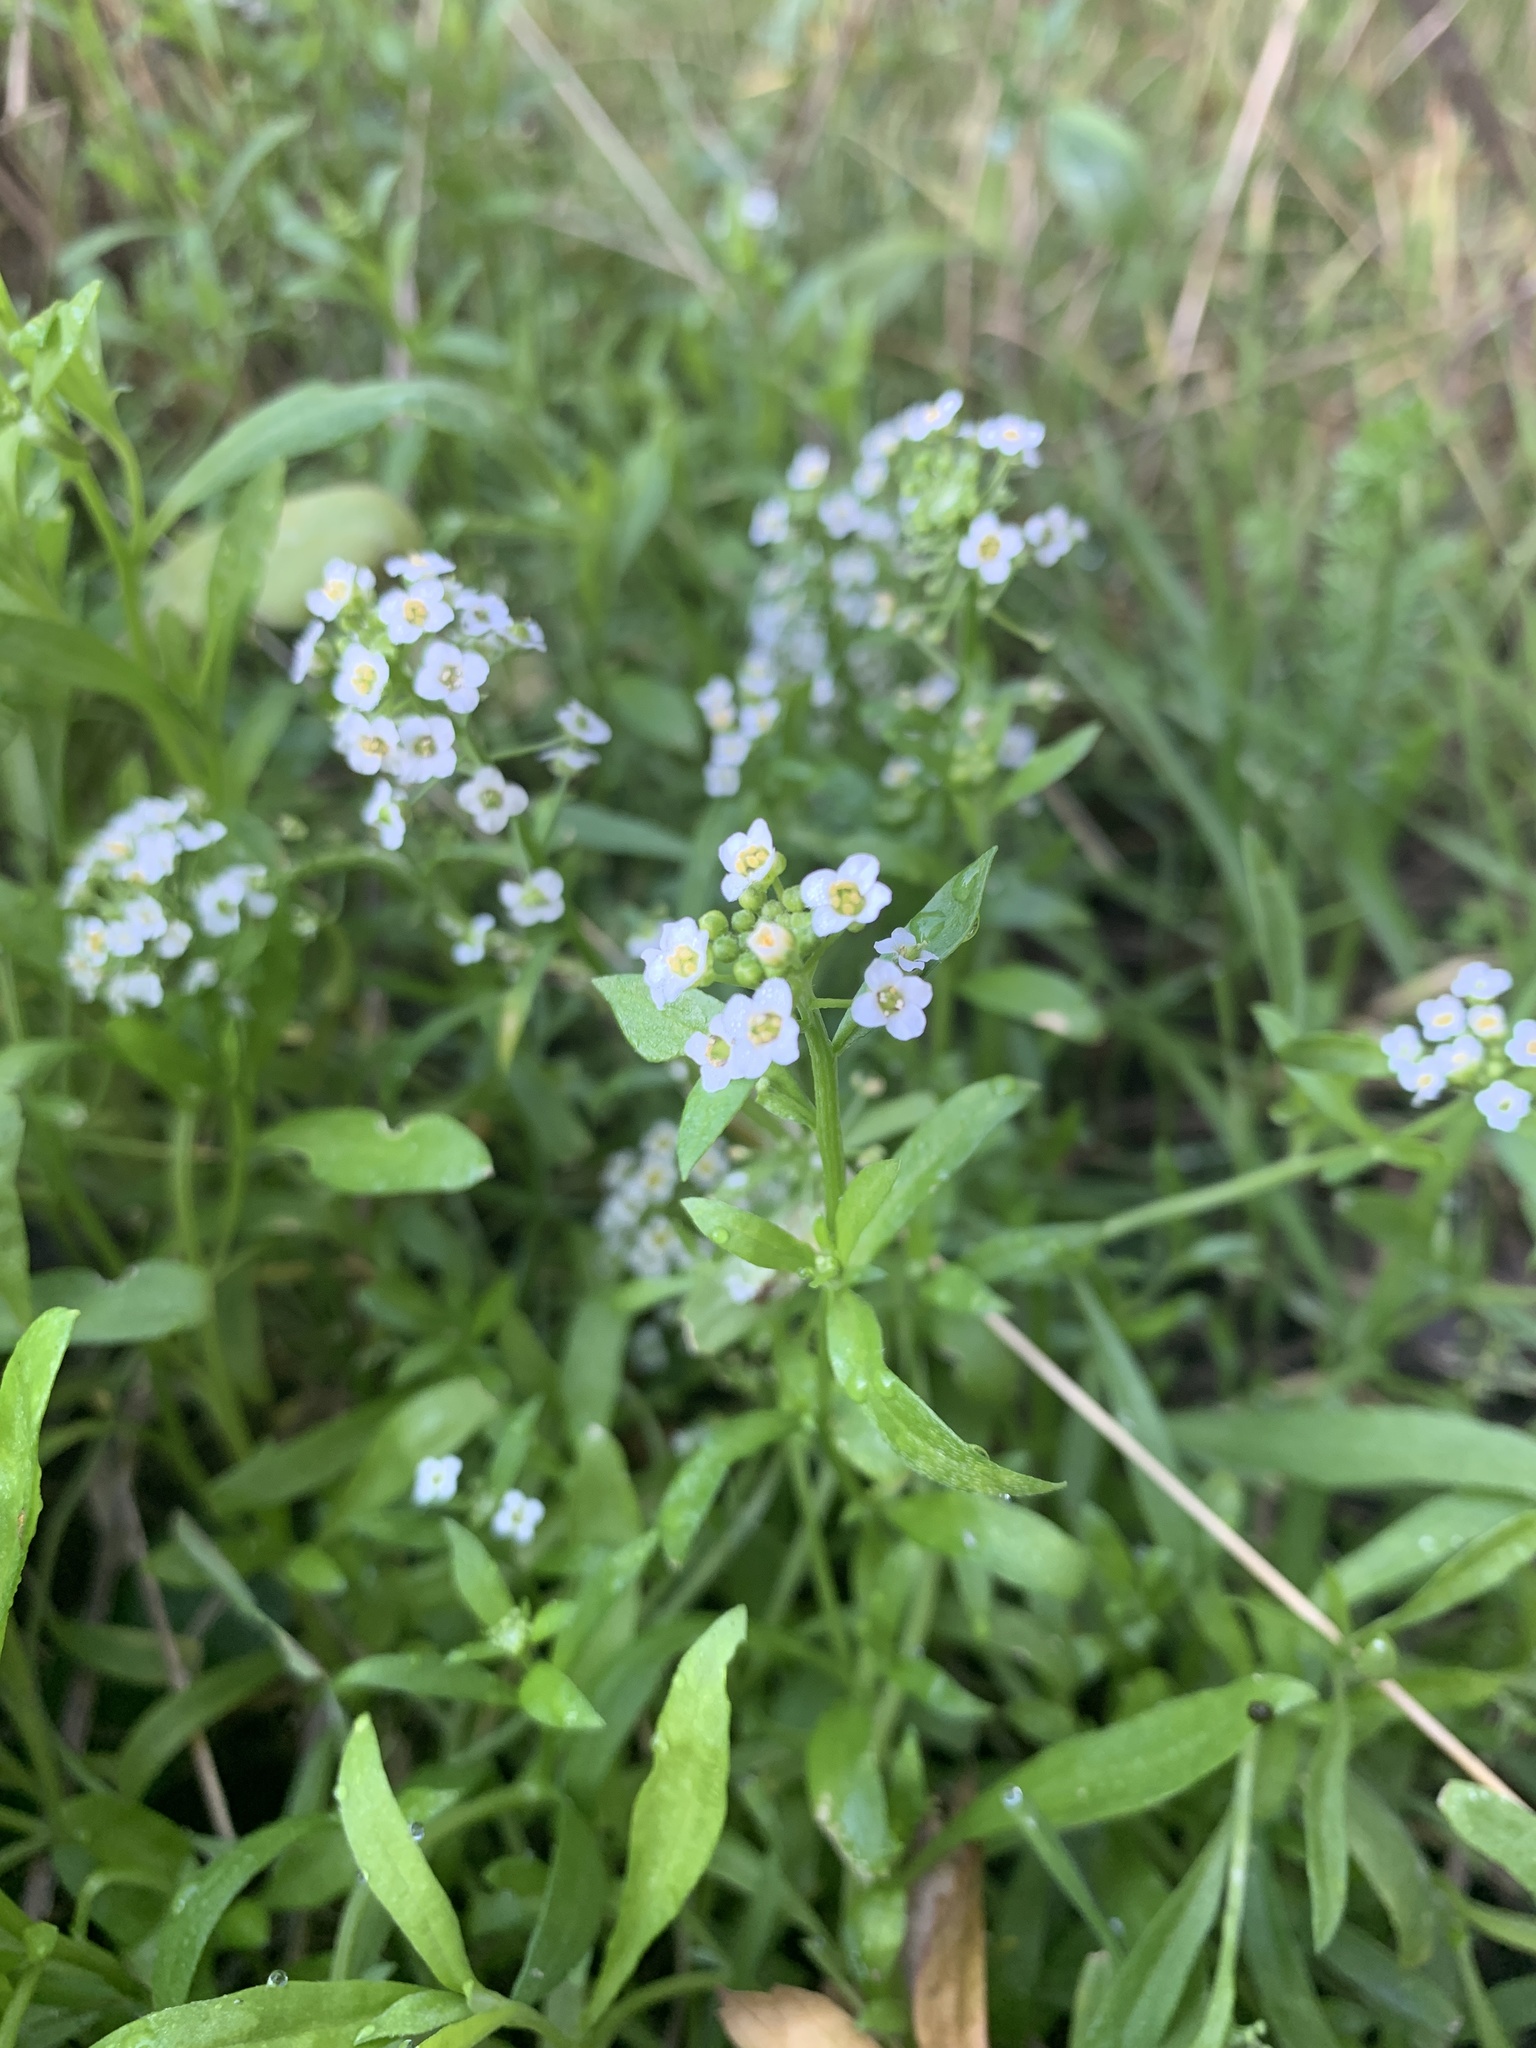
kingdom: Plantae
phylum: Tracheophyta
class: Magnoliopsida
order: Brassicales
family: Brassicaceae
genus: Lobularia
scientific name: Lobularia maritima
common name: Sweet alison
